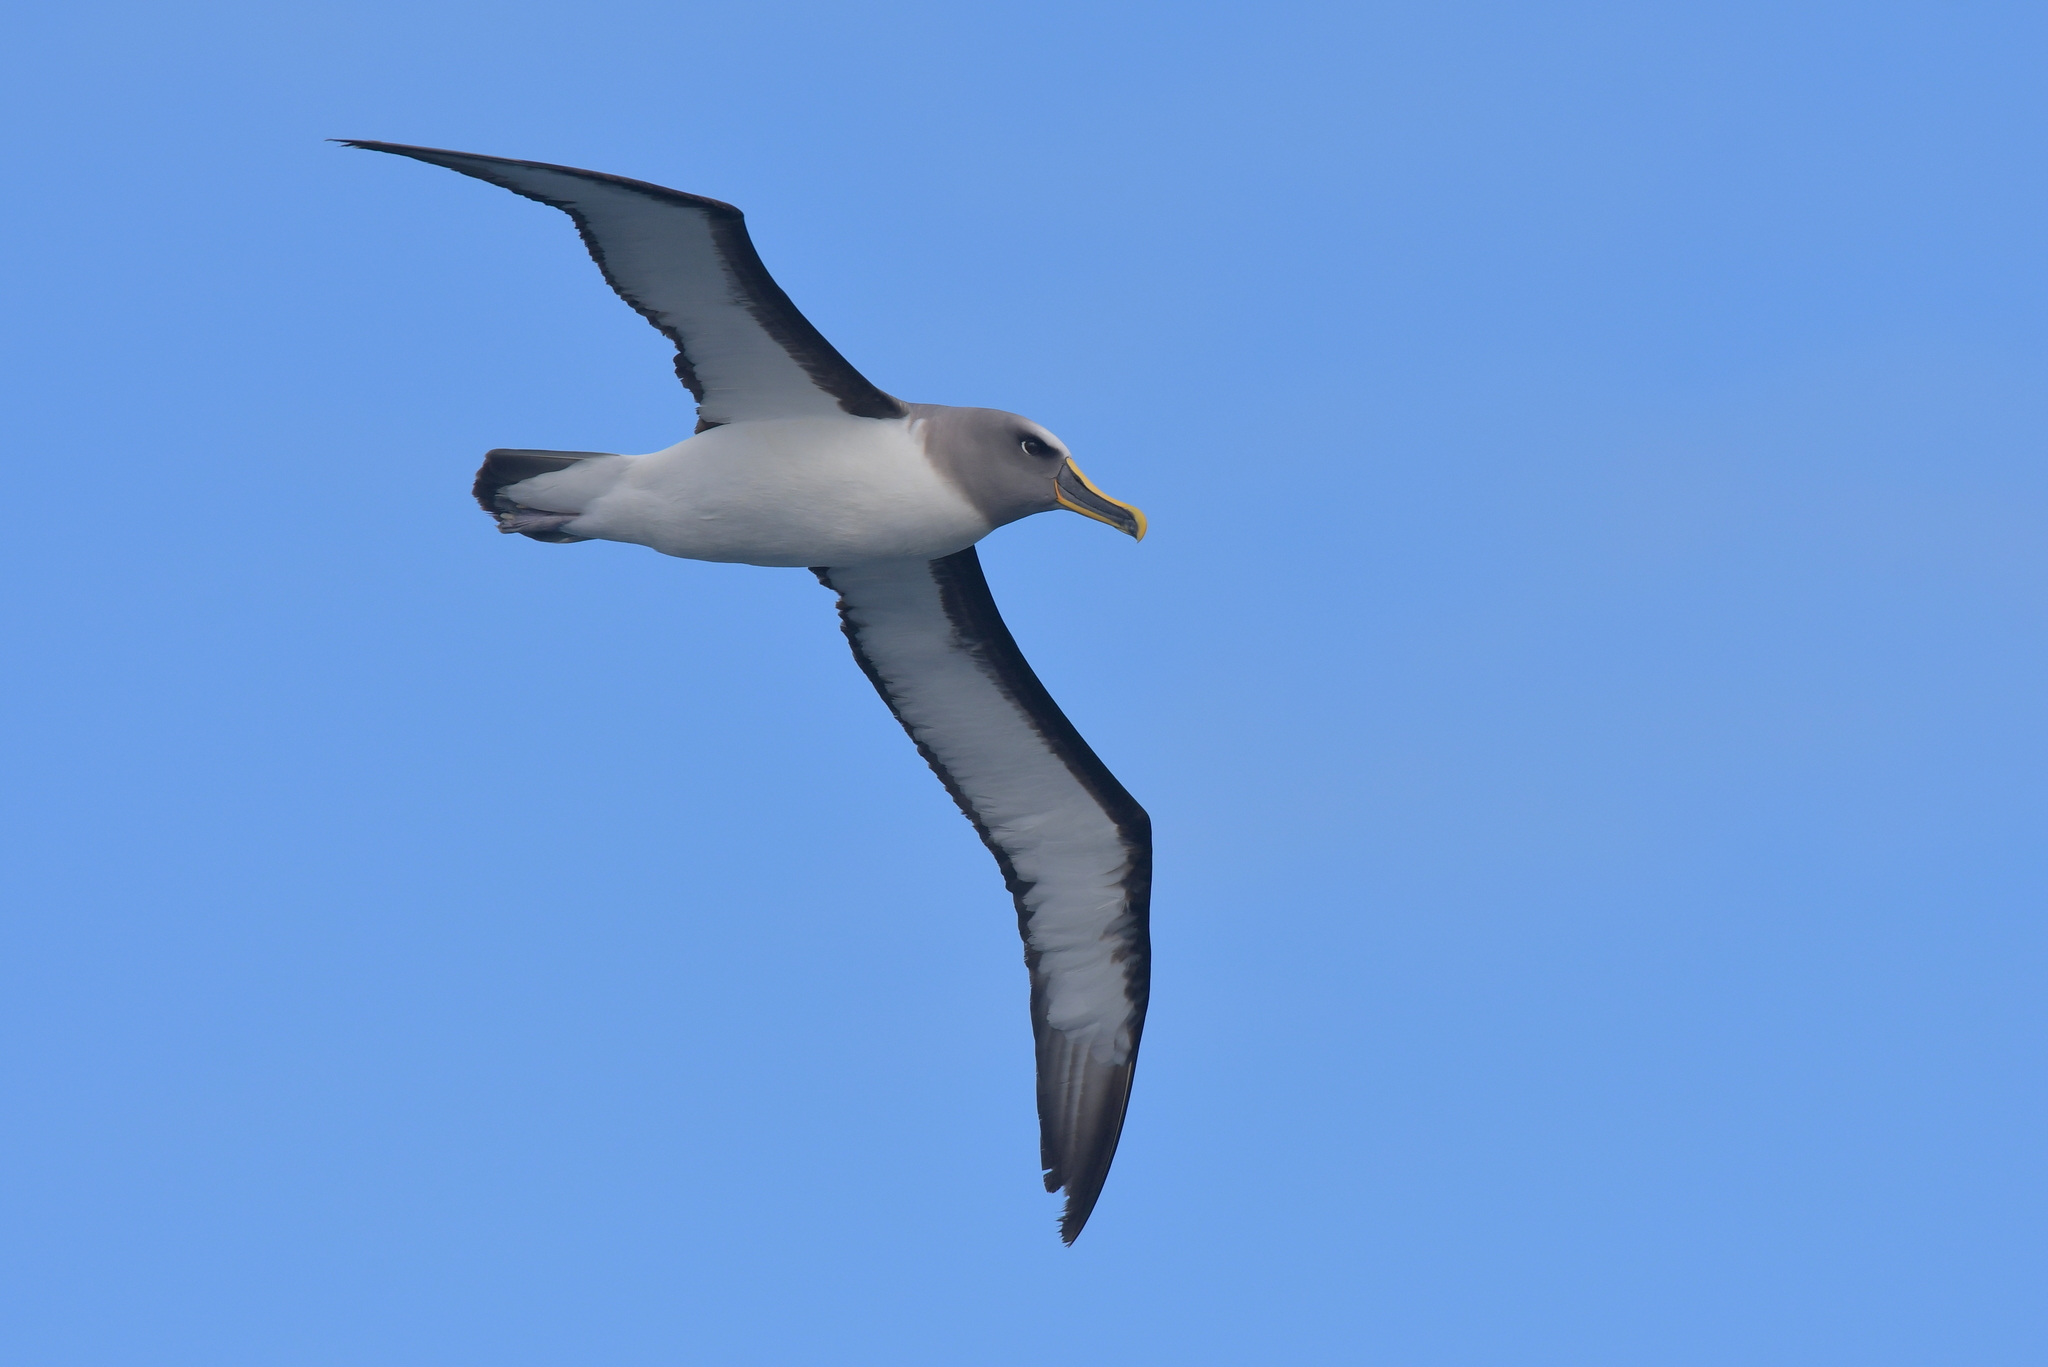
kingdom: Animalia
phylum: Chordata
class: Aves
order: Procellariiformes
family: Diomedeidae
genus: Thalassarche
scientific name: Thalassarche bulleri
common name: Buller's albatross
